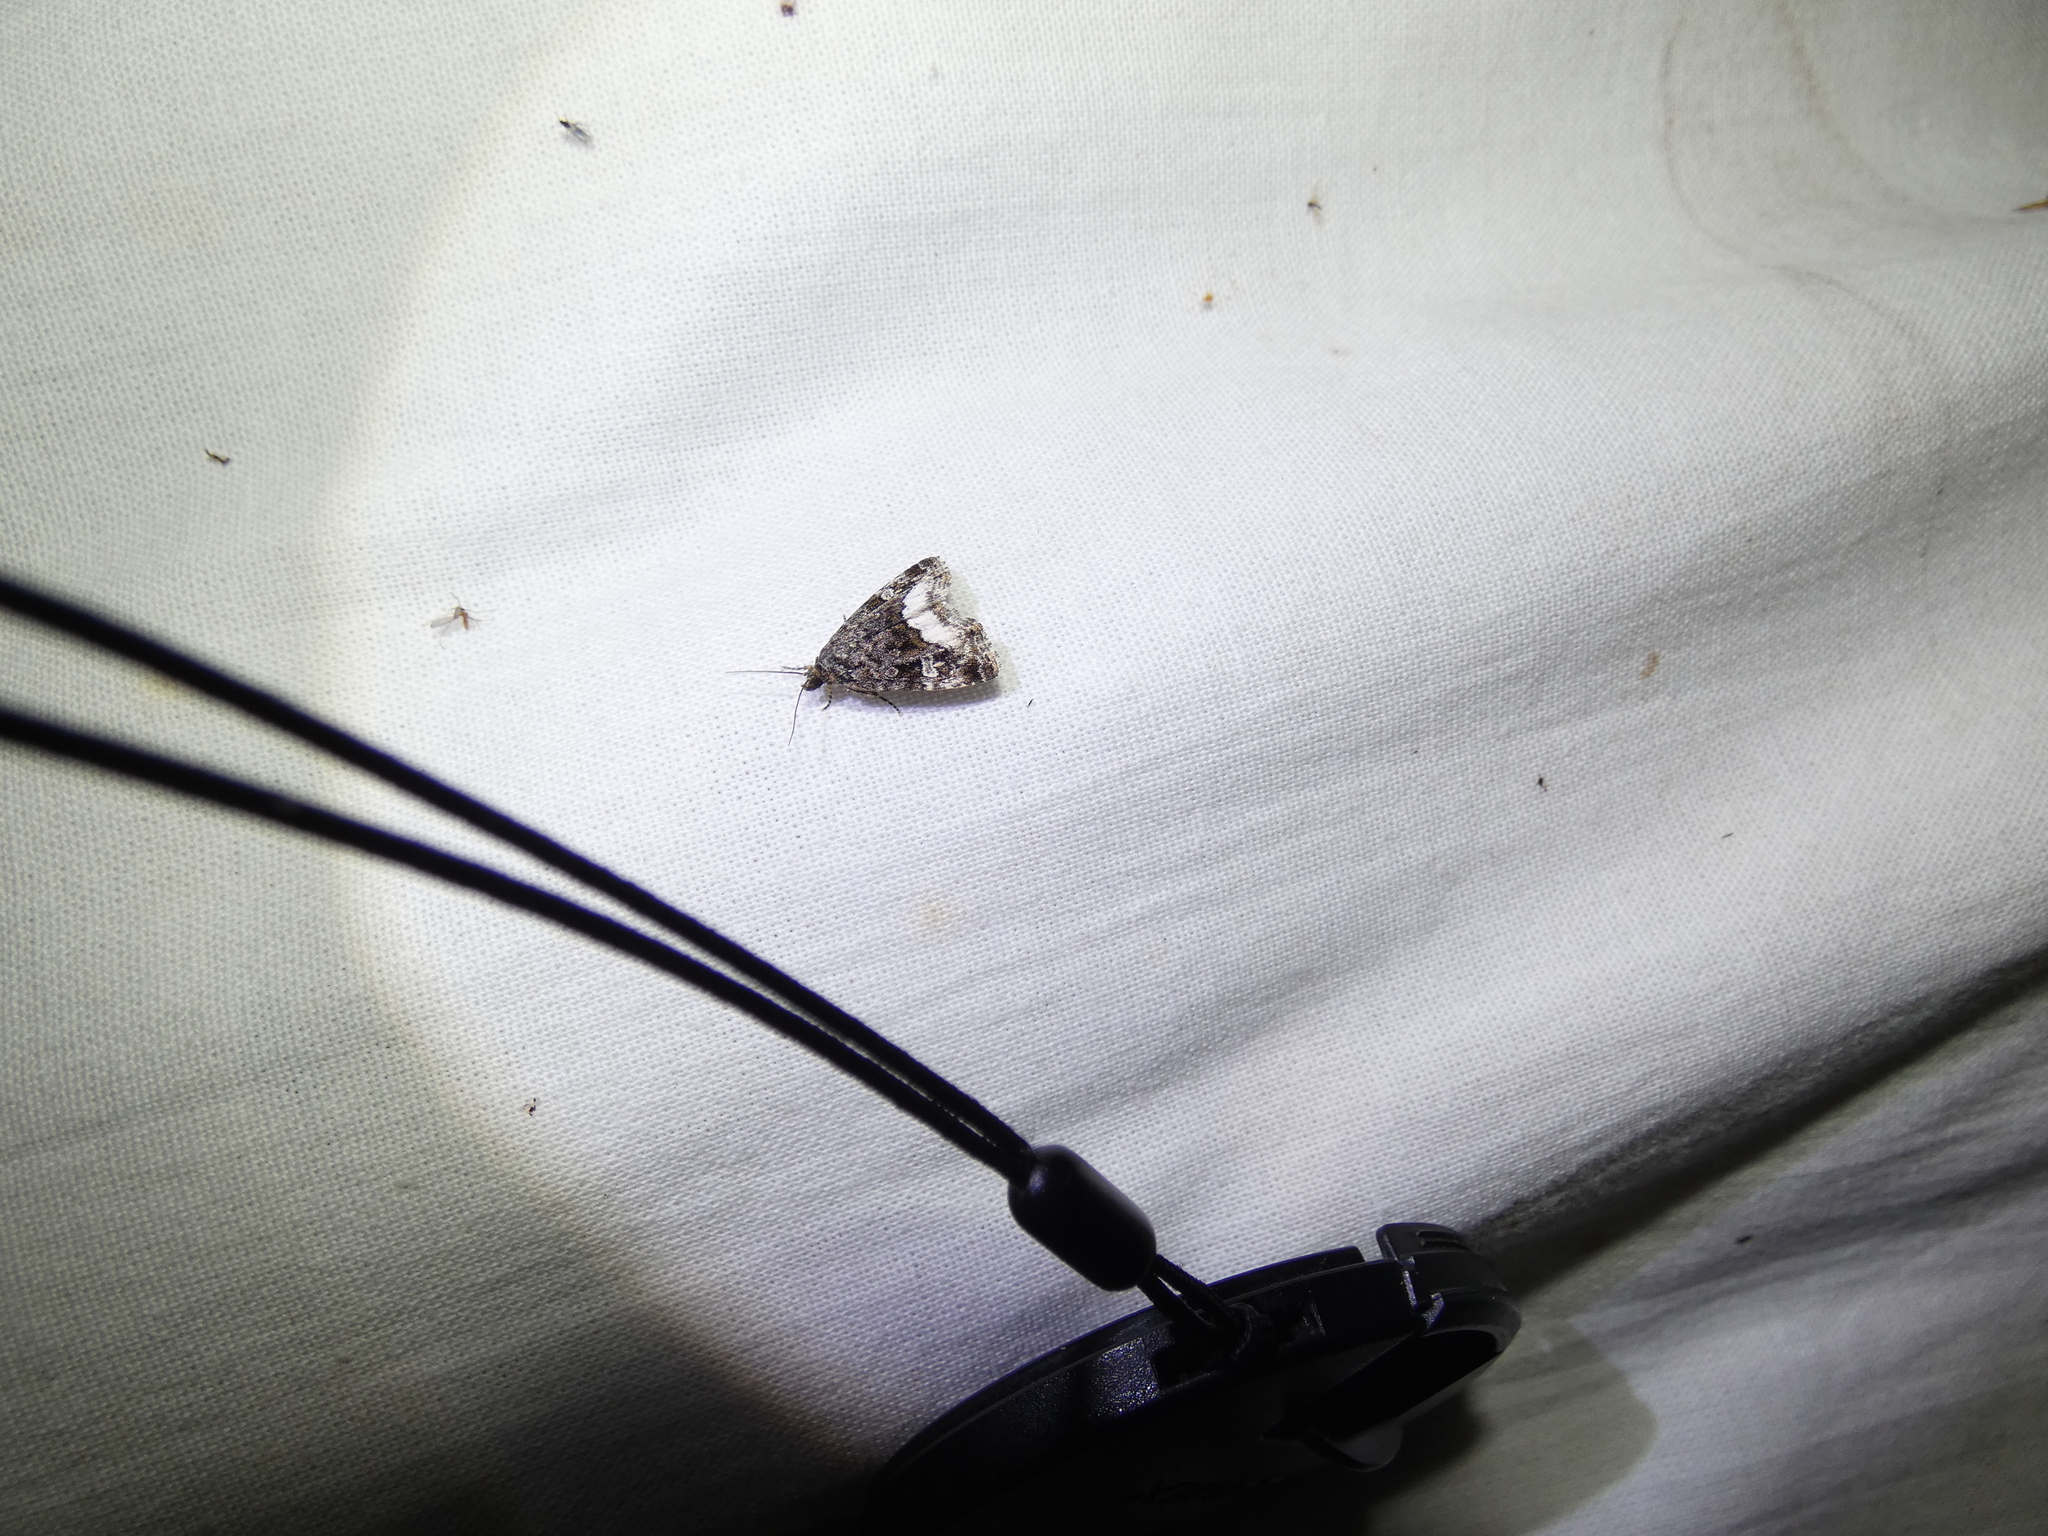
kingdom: Animalia
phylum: Arthropoda
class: Insecta
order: Lepidoptera
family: Noctuidae
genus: Deltote
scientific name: Deltote pygarga
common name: Marbled white spot
